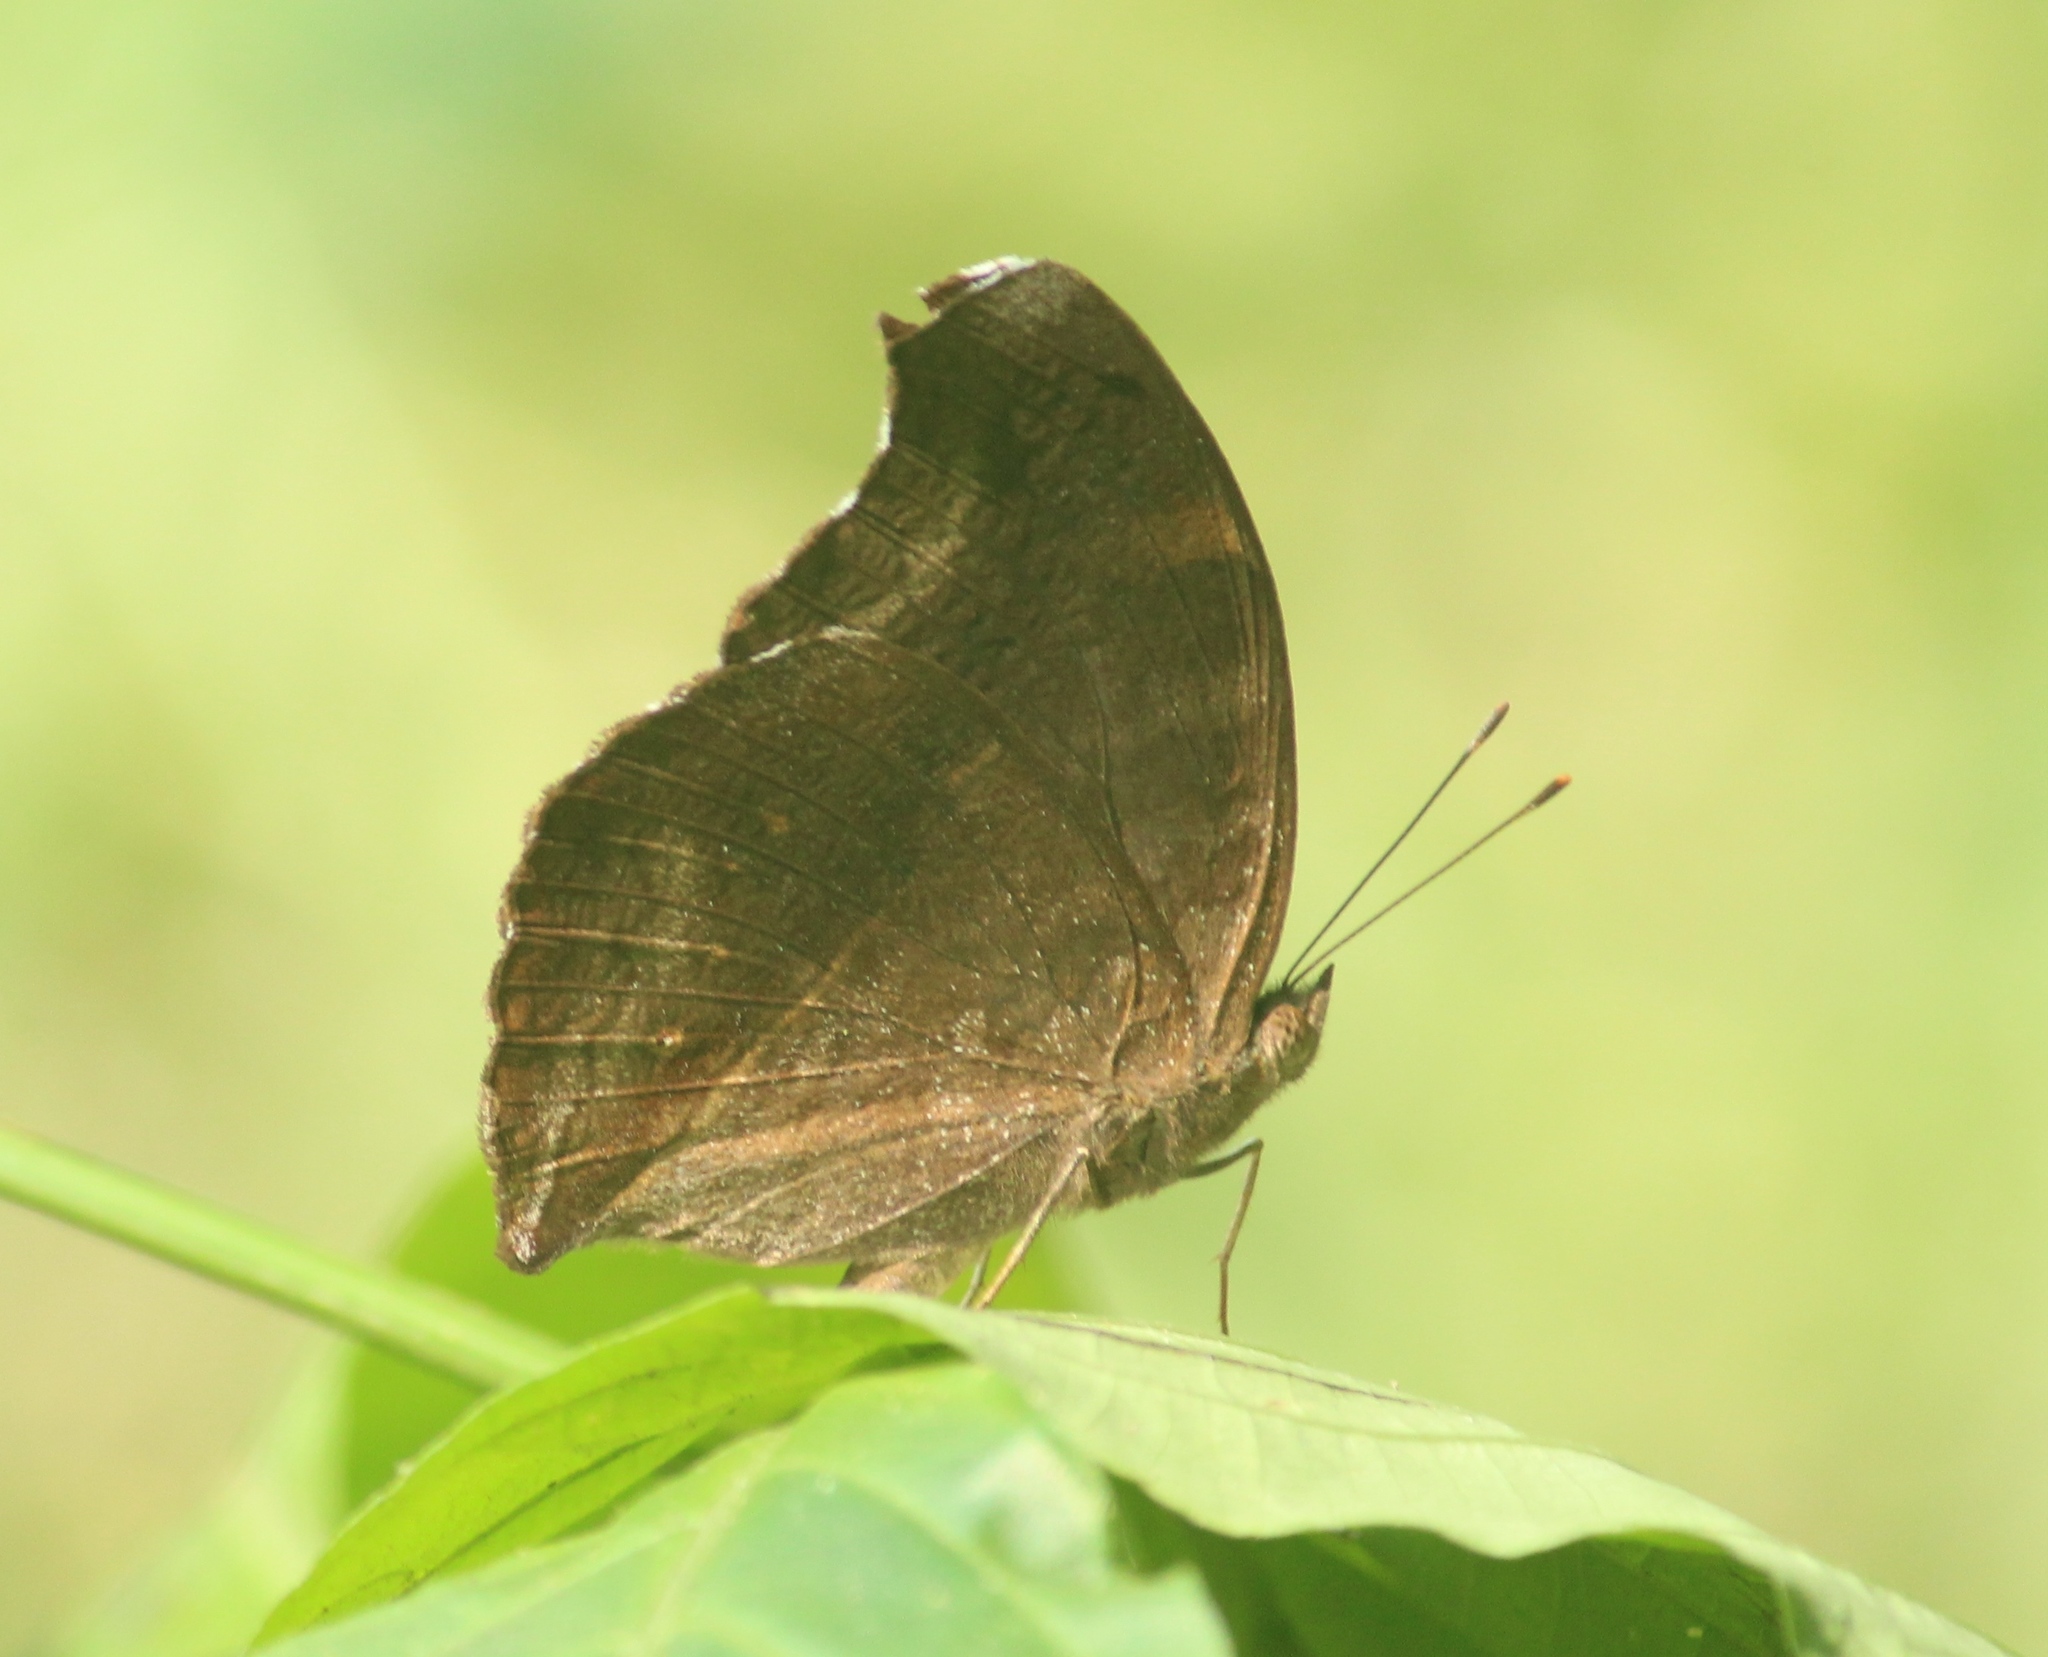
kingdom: Animalia
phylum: Arthropoda
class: Insecta
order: Lepidoptera
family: Nymphalidae
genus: Junonia
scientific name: Junonia iphita
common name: Chocolate pansy
